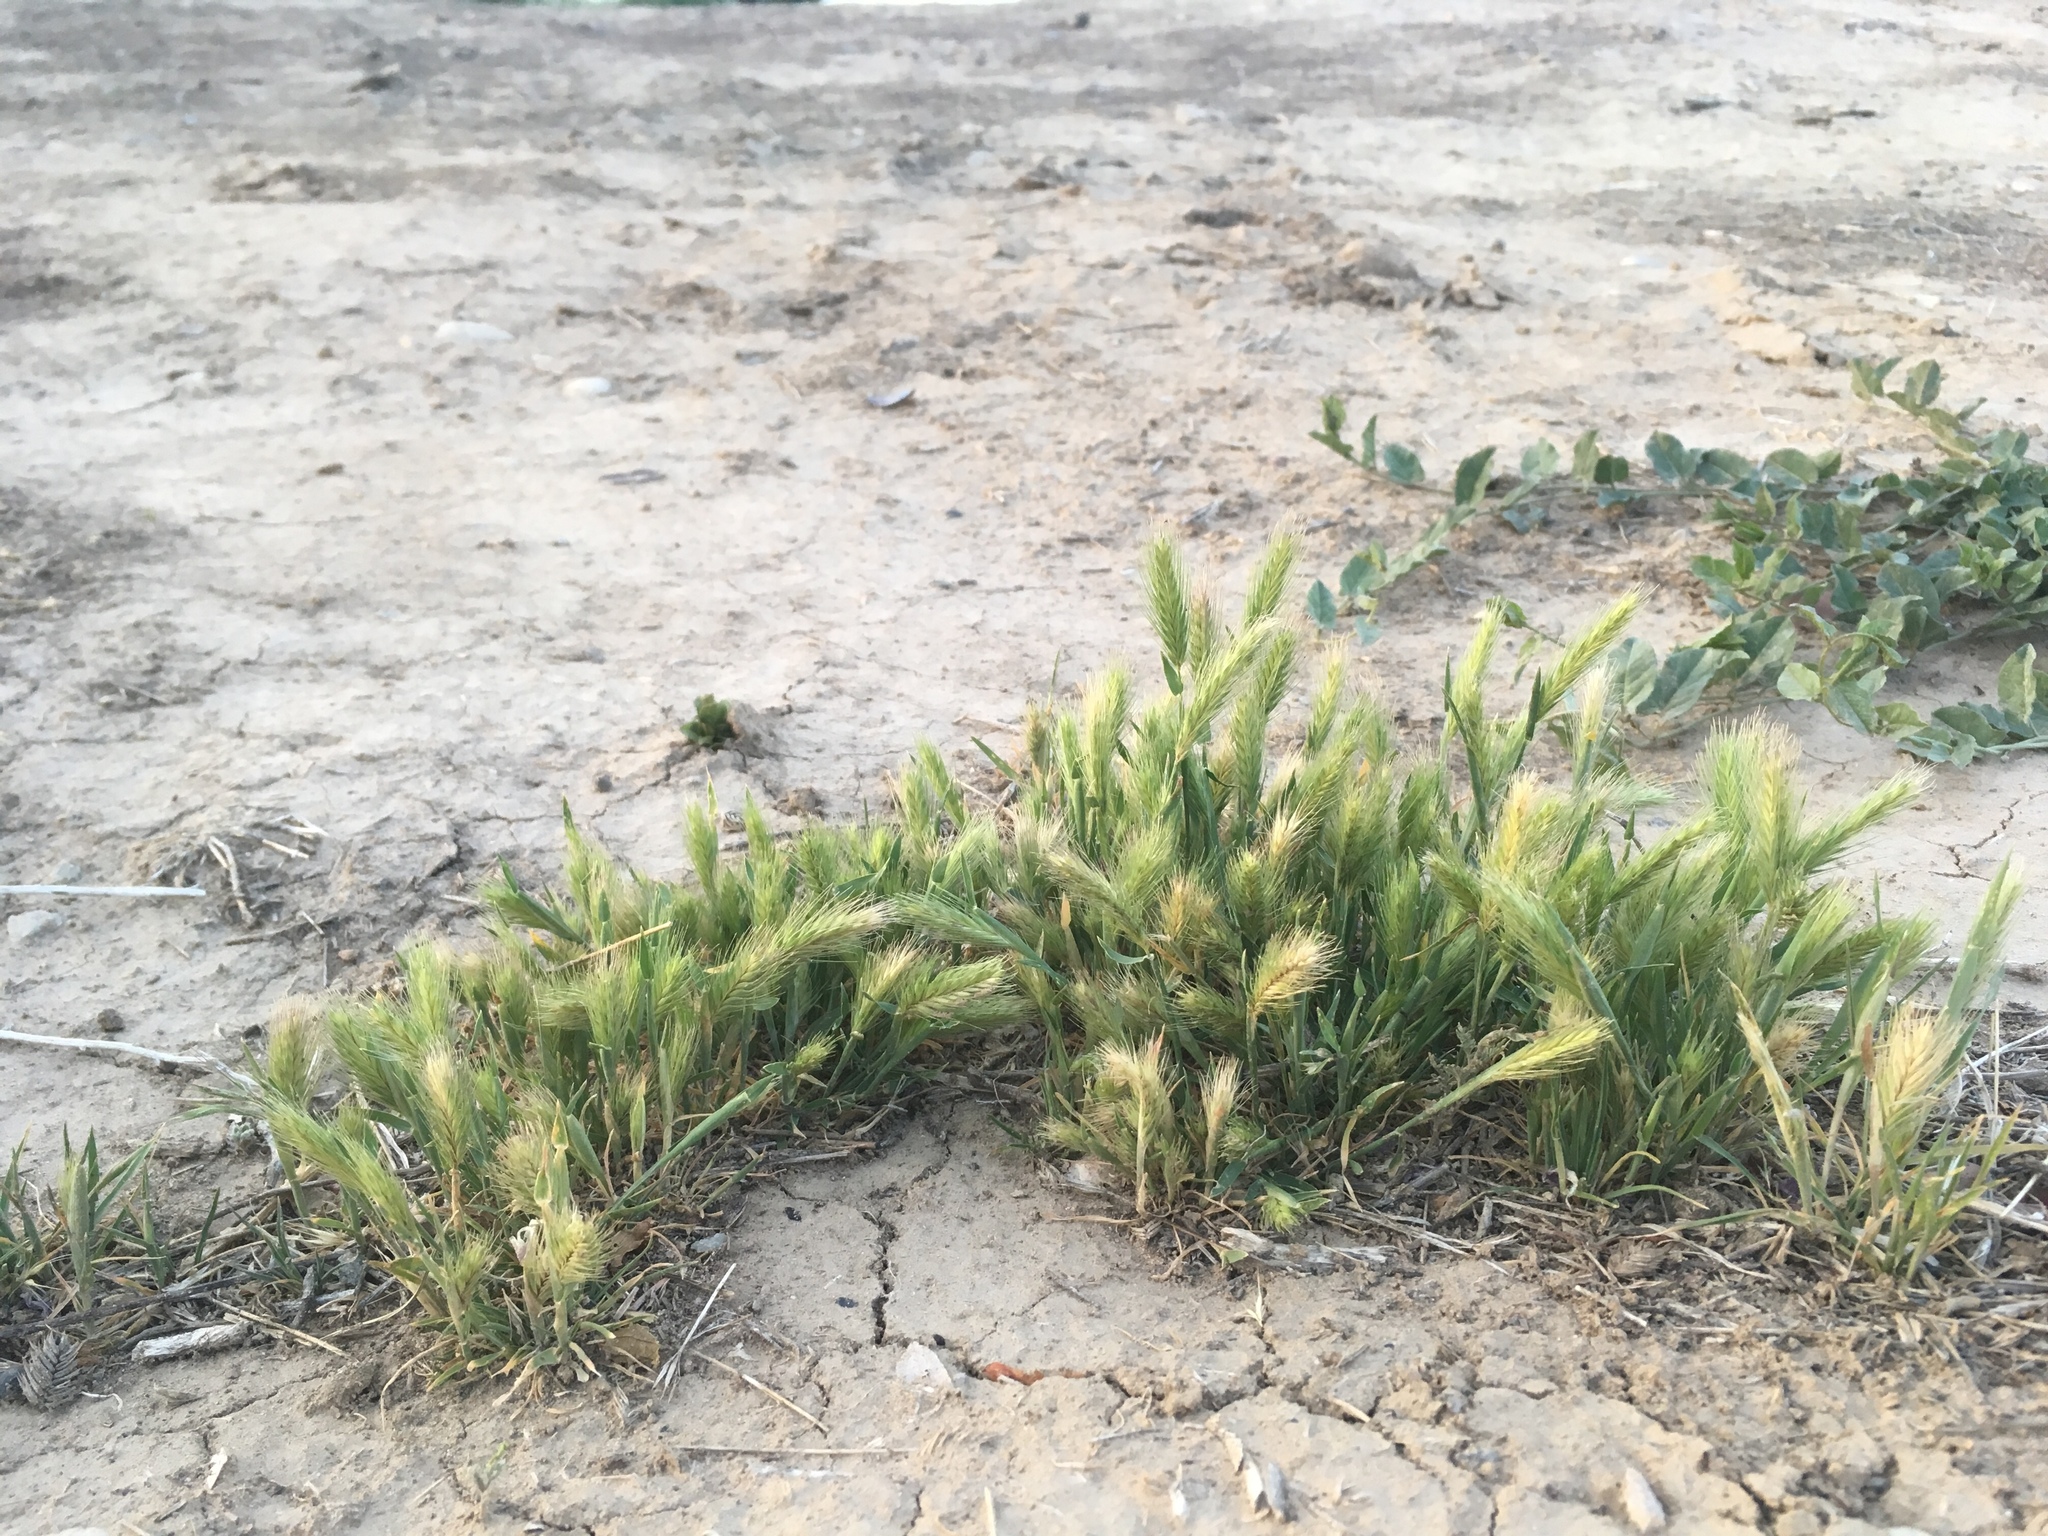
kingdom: Plantae
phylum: Tracheophyta
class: Liliopsida
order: Poales
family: Poaceae
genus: Hordeum
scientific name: Hordeum murinum
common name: Wall barley
